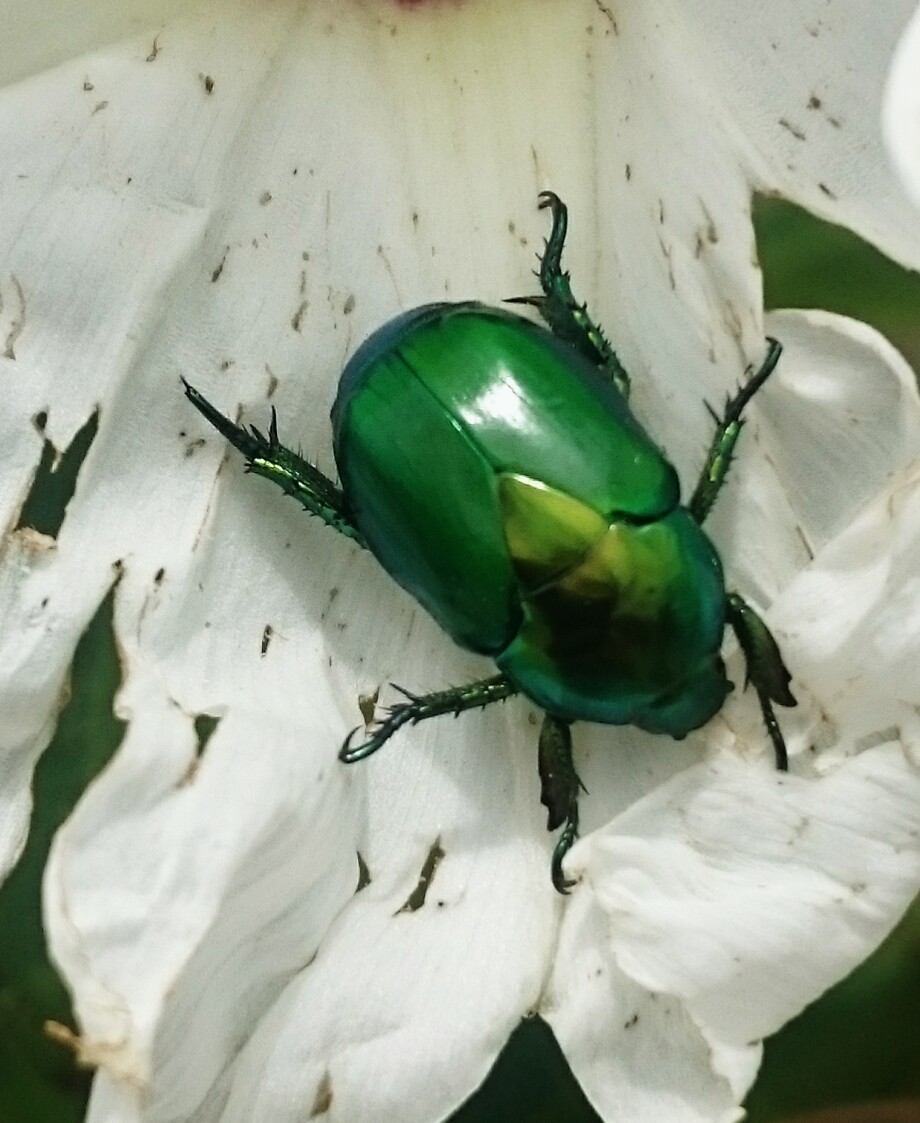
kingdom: Animalia
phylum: Arthropoda
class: Insecta
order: Coleoptera
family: Scarabaeidae
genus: Calomacraspis
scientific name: Calomacraspis splendens
